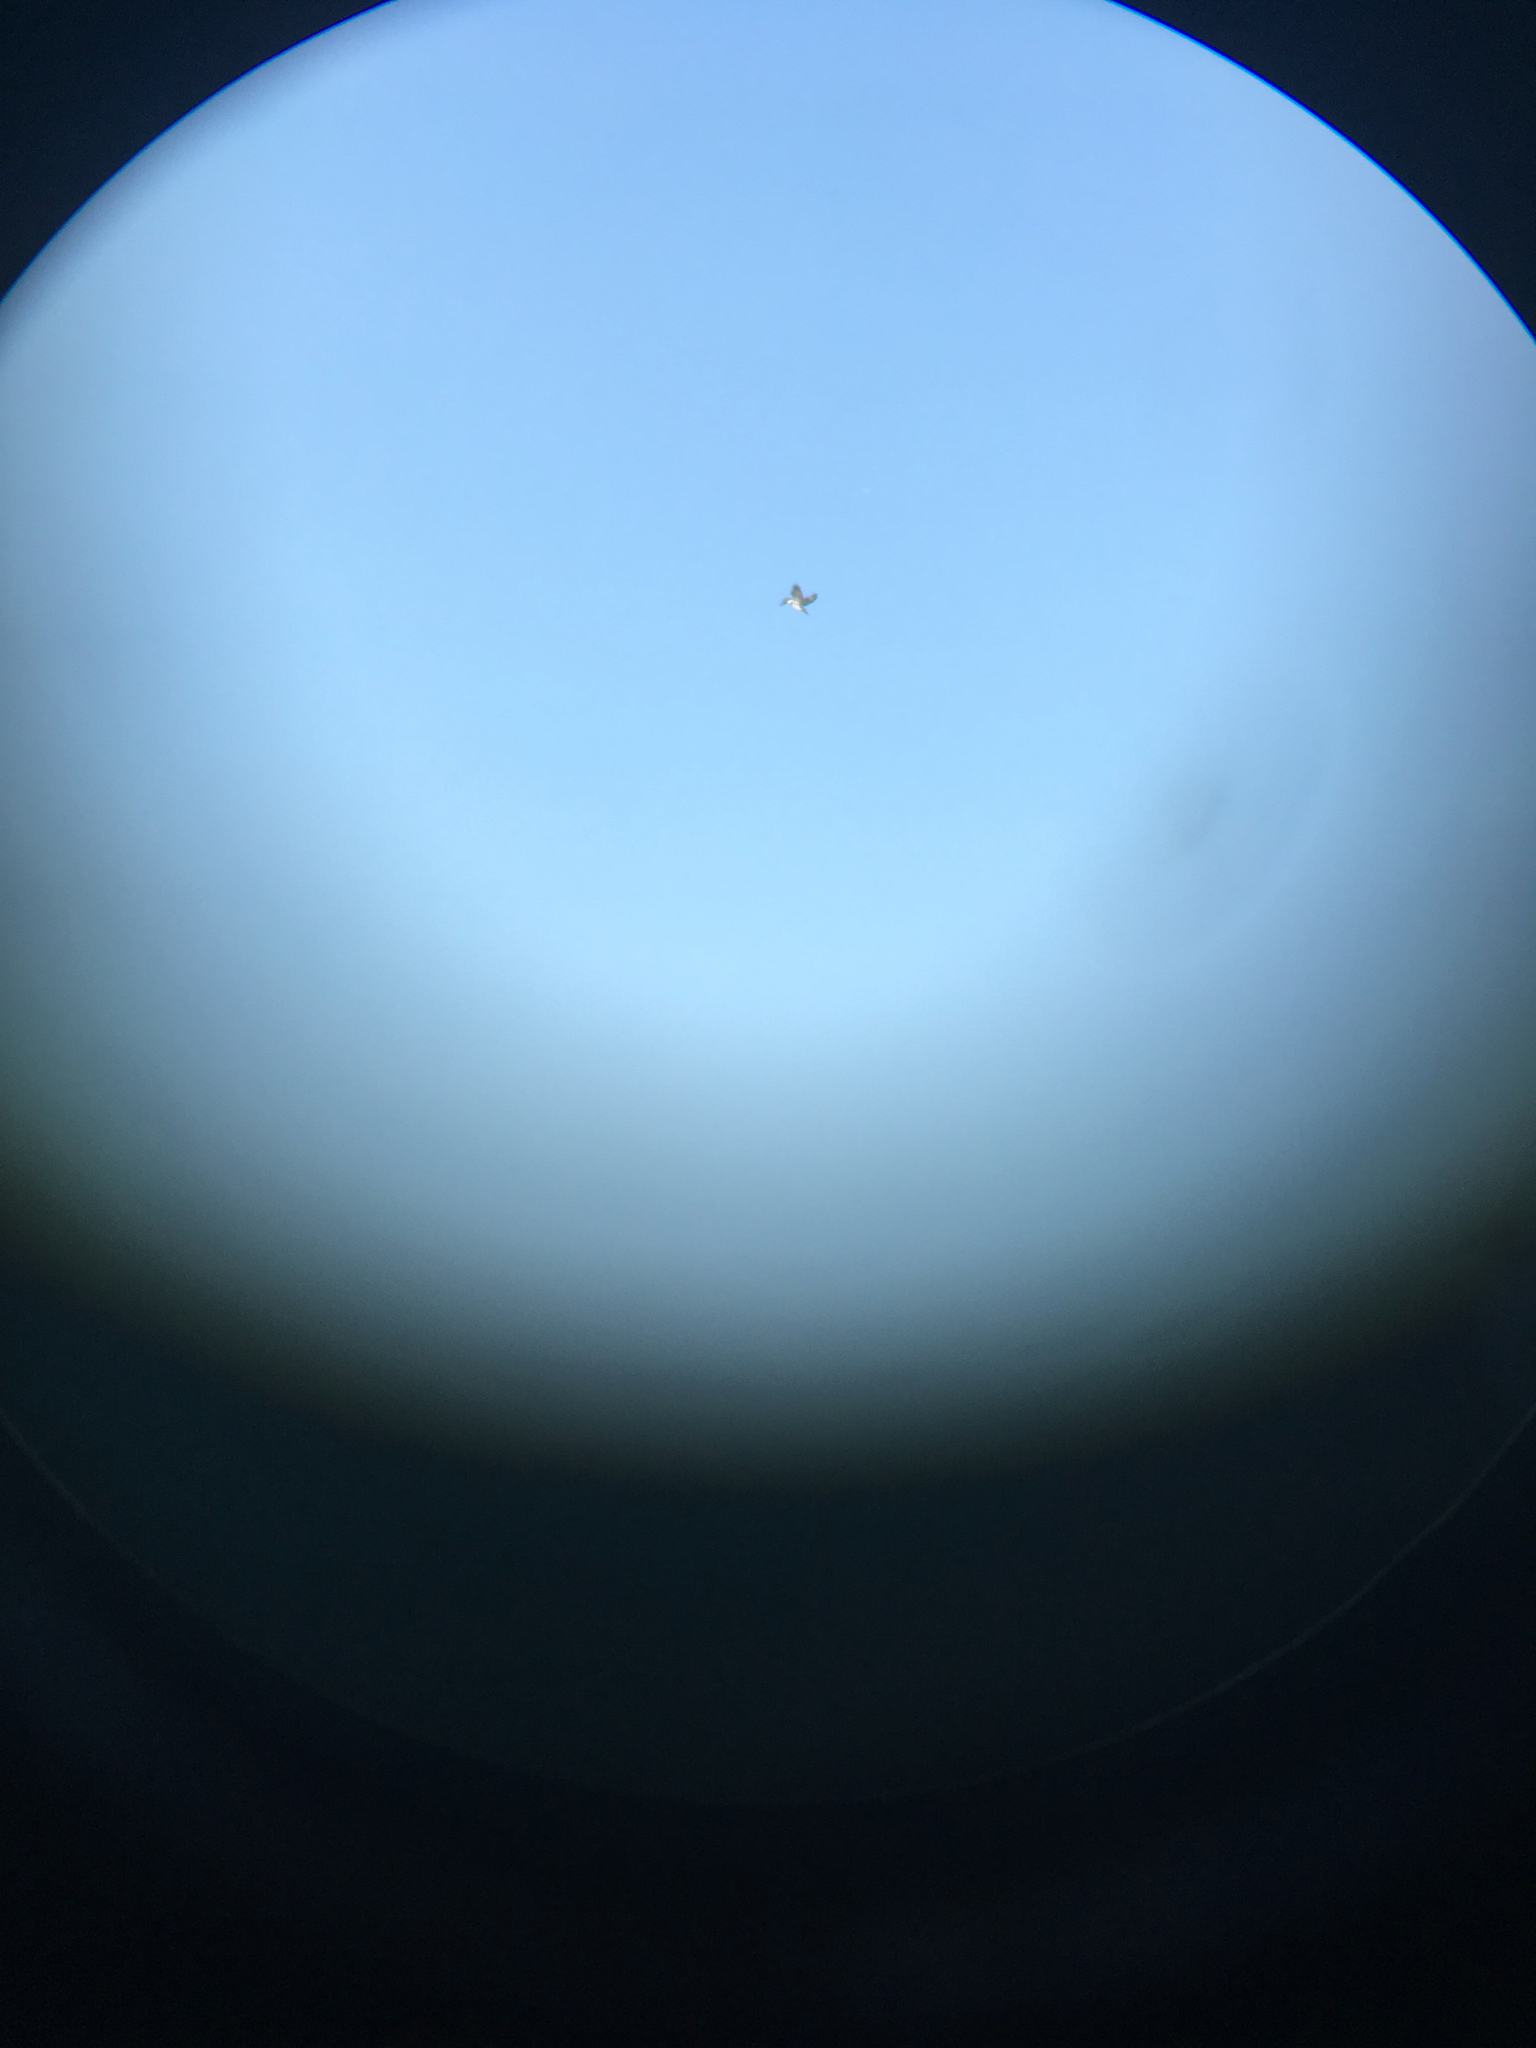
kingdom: Animalia
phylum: Chordata
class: Aves
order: Coraciiformes
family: Alcedinidae
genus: Megaceryle
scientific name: Megaceryle alcyon
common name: Belted kingfisher
